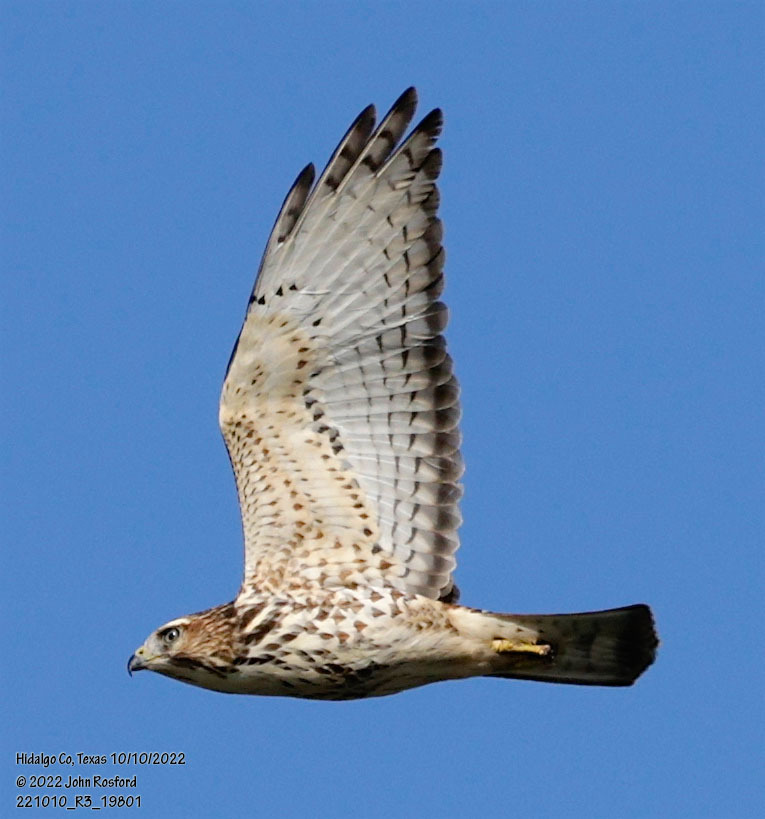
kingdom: Animalia
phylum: Chordata
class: Aves
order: Accipitriformes
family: Accipitridae
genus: Buteo
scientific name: Buteo platypterus
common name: Broad-winged hawk
